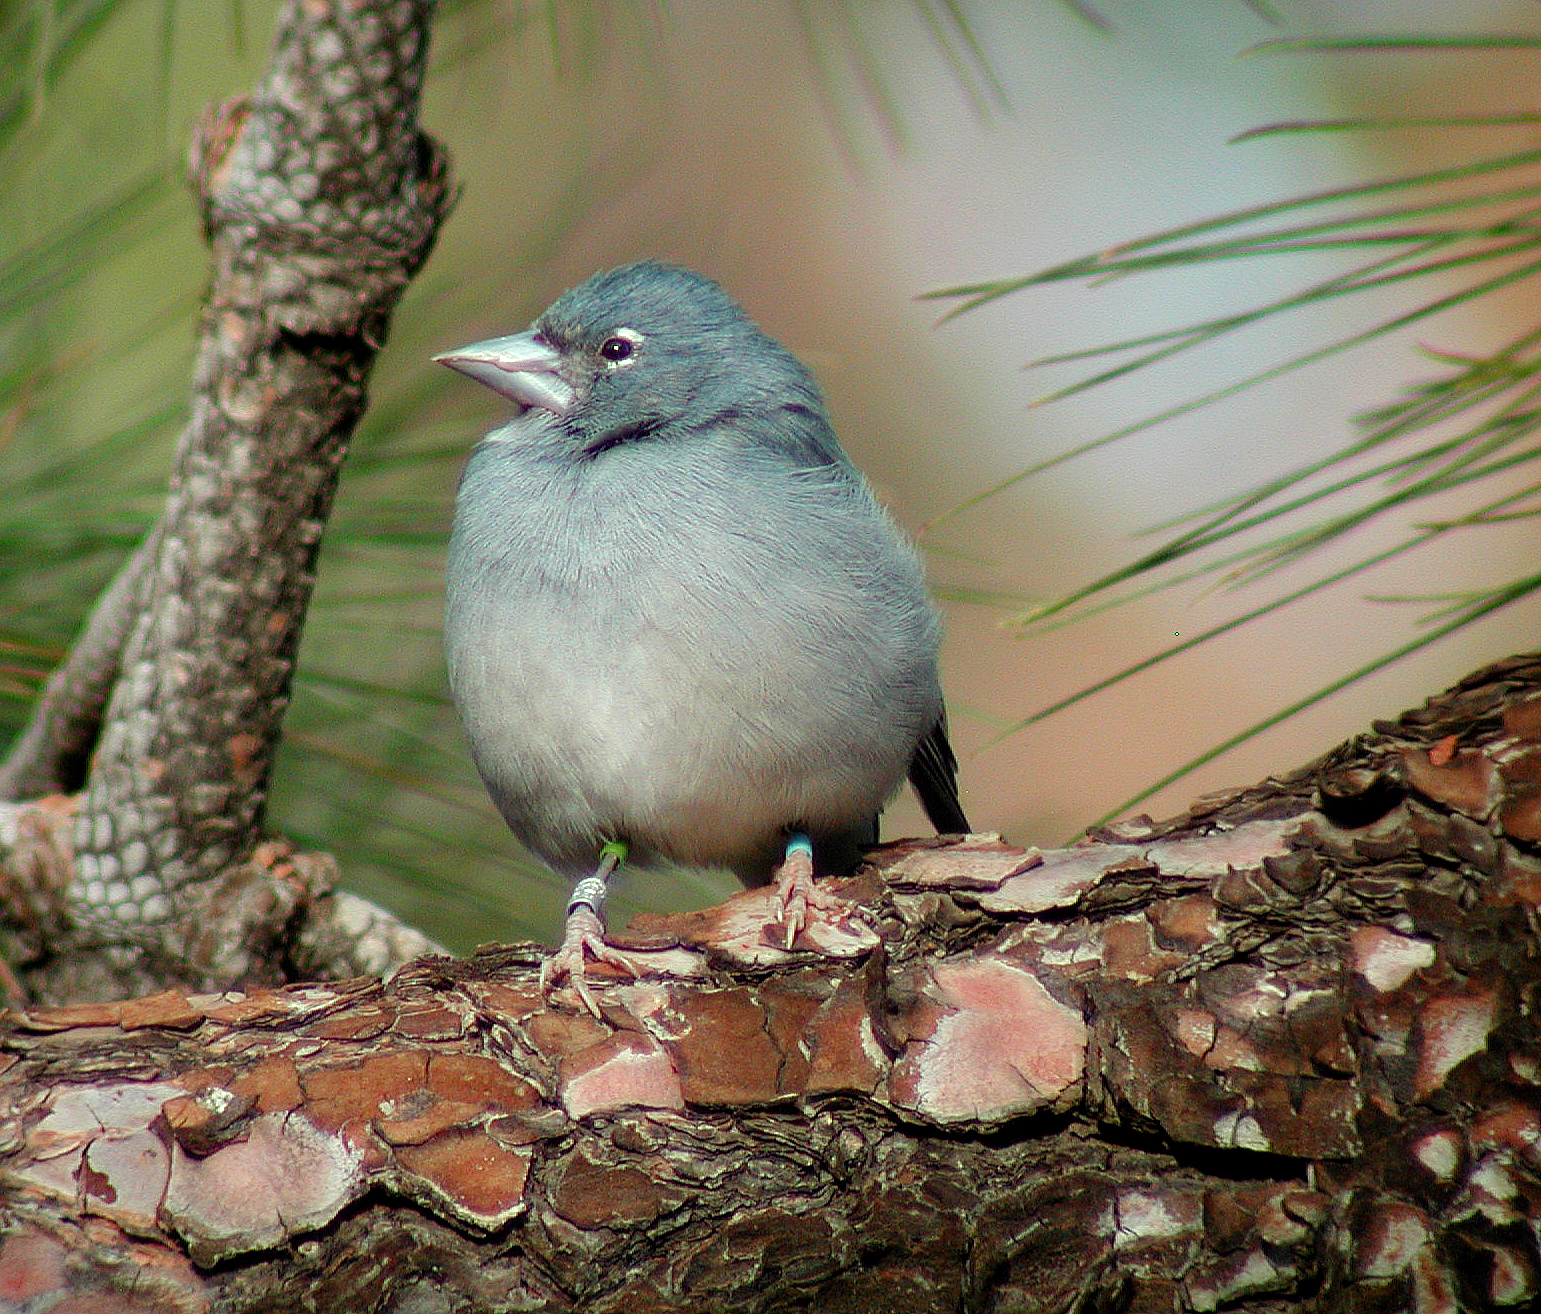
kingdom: Animalia
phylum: Chordata
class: Aves
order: Passeriformes
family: Fringillidae
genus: Fringilla
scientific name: Fringilla teydea
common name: Blue chaffinch
